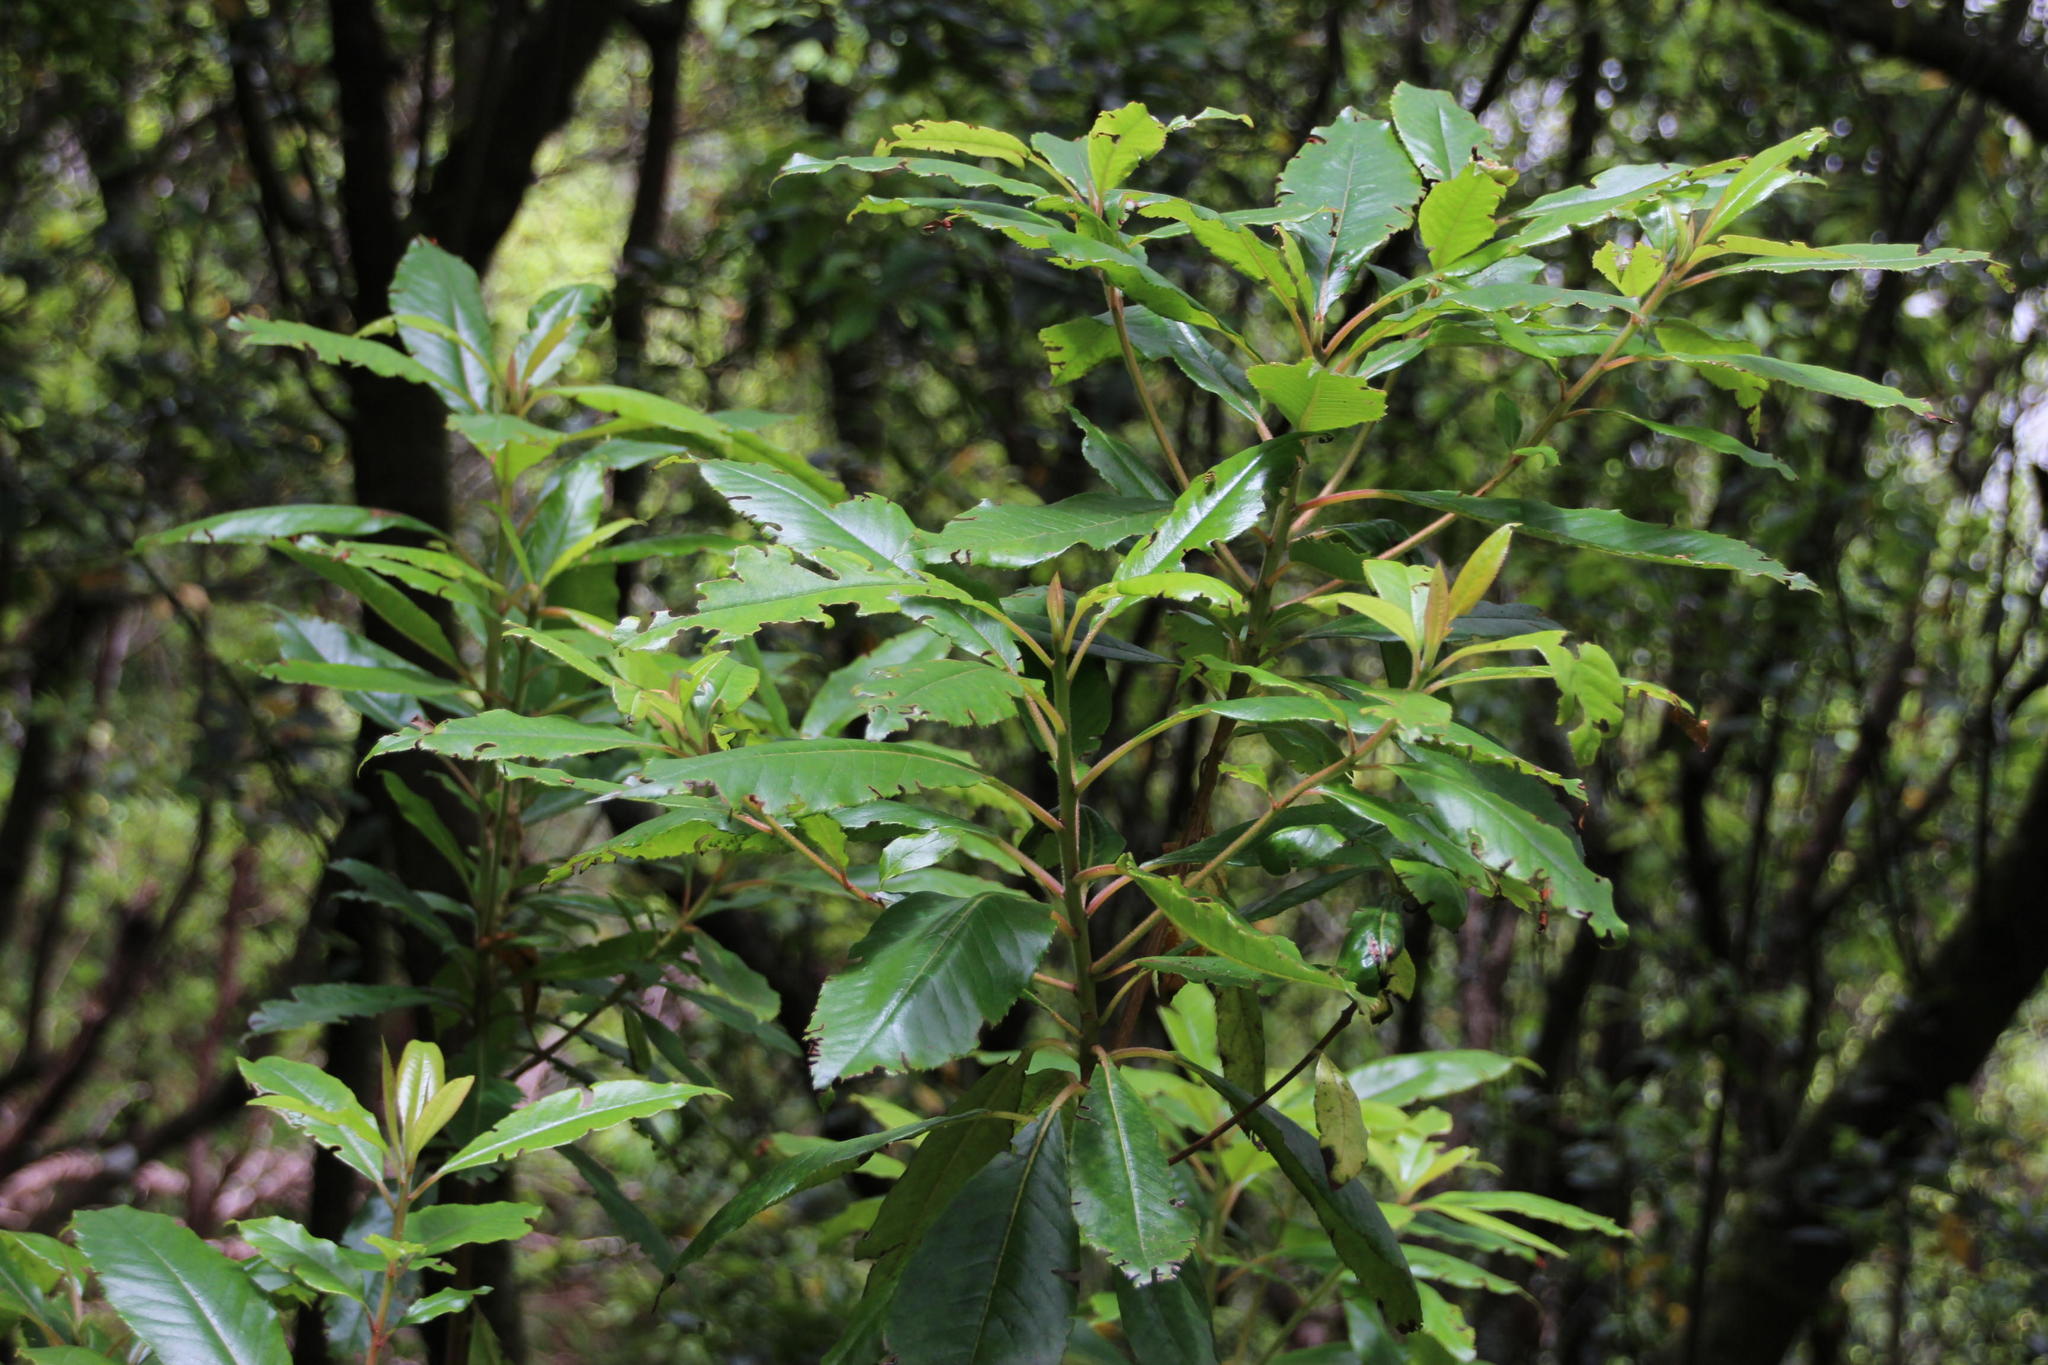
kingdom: Plantae
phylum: Tracheophyta
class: Magnoliopsida
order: Ericales
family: Clethraceae
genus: Clethra
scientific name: Clethra arborea
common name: Lily-of-the-valley-tree
